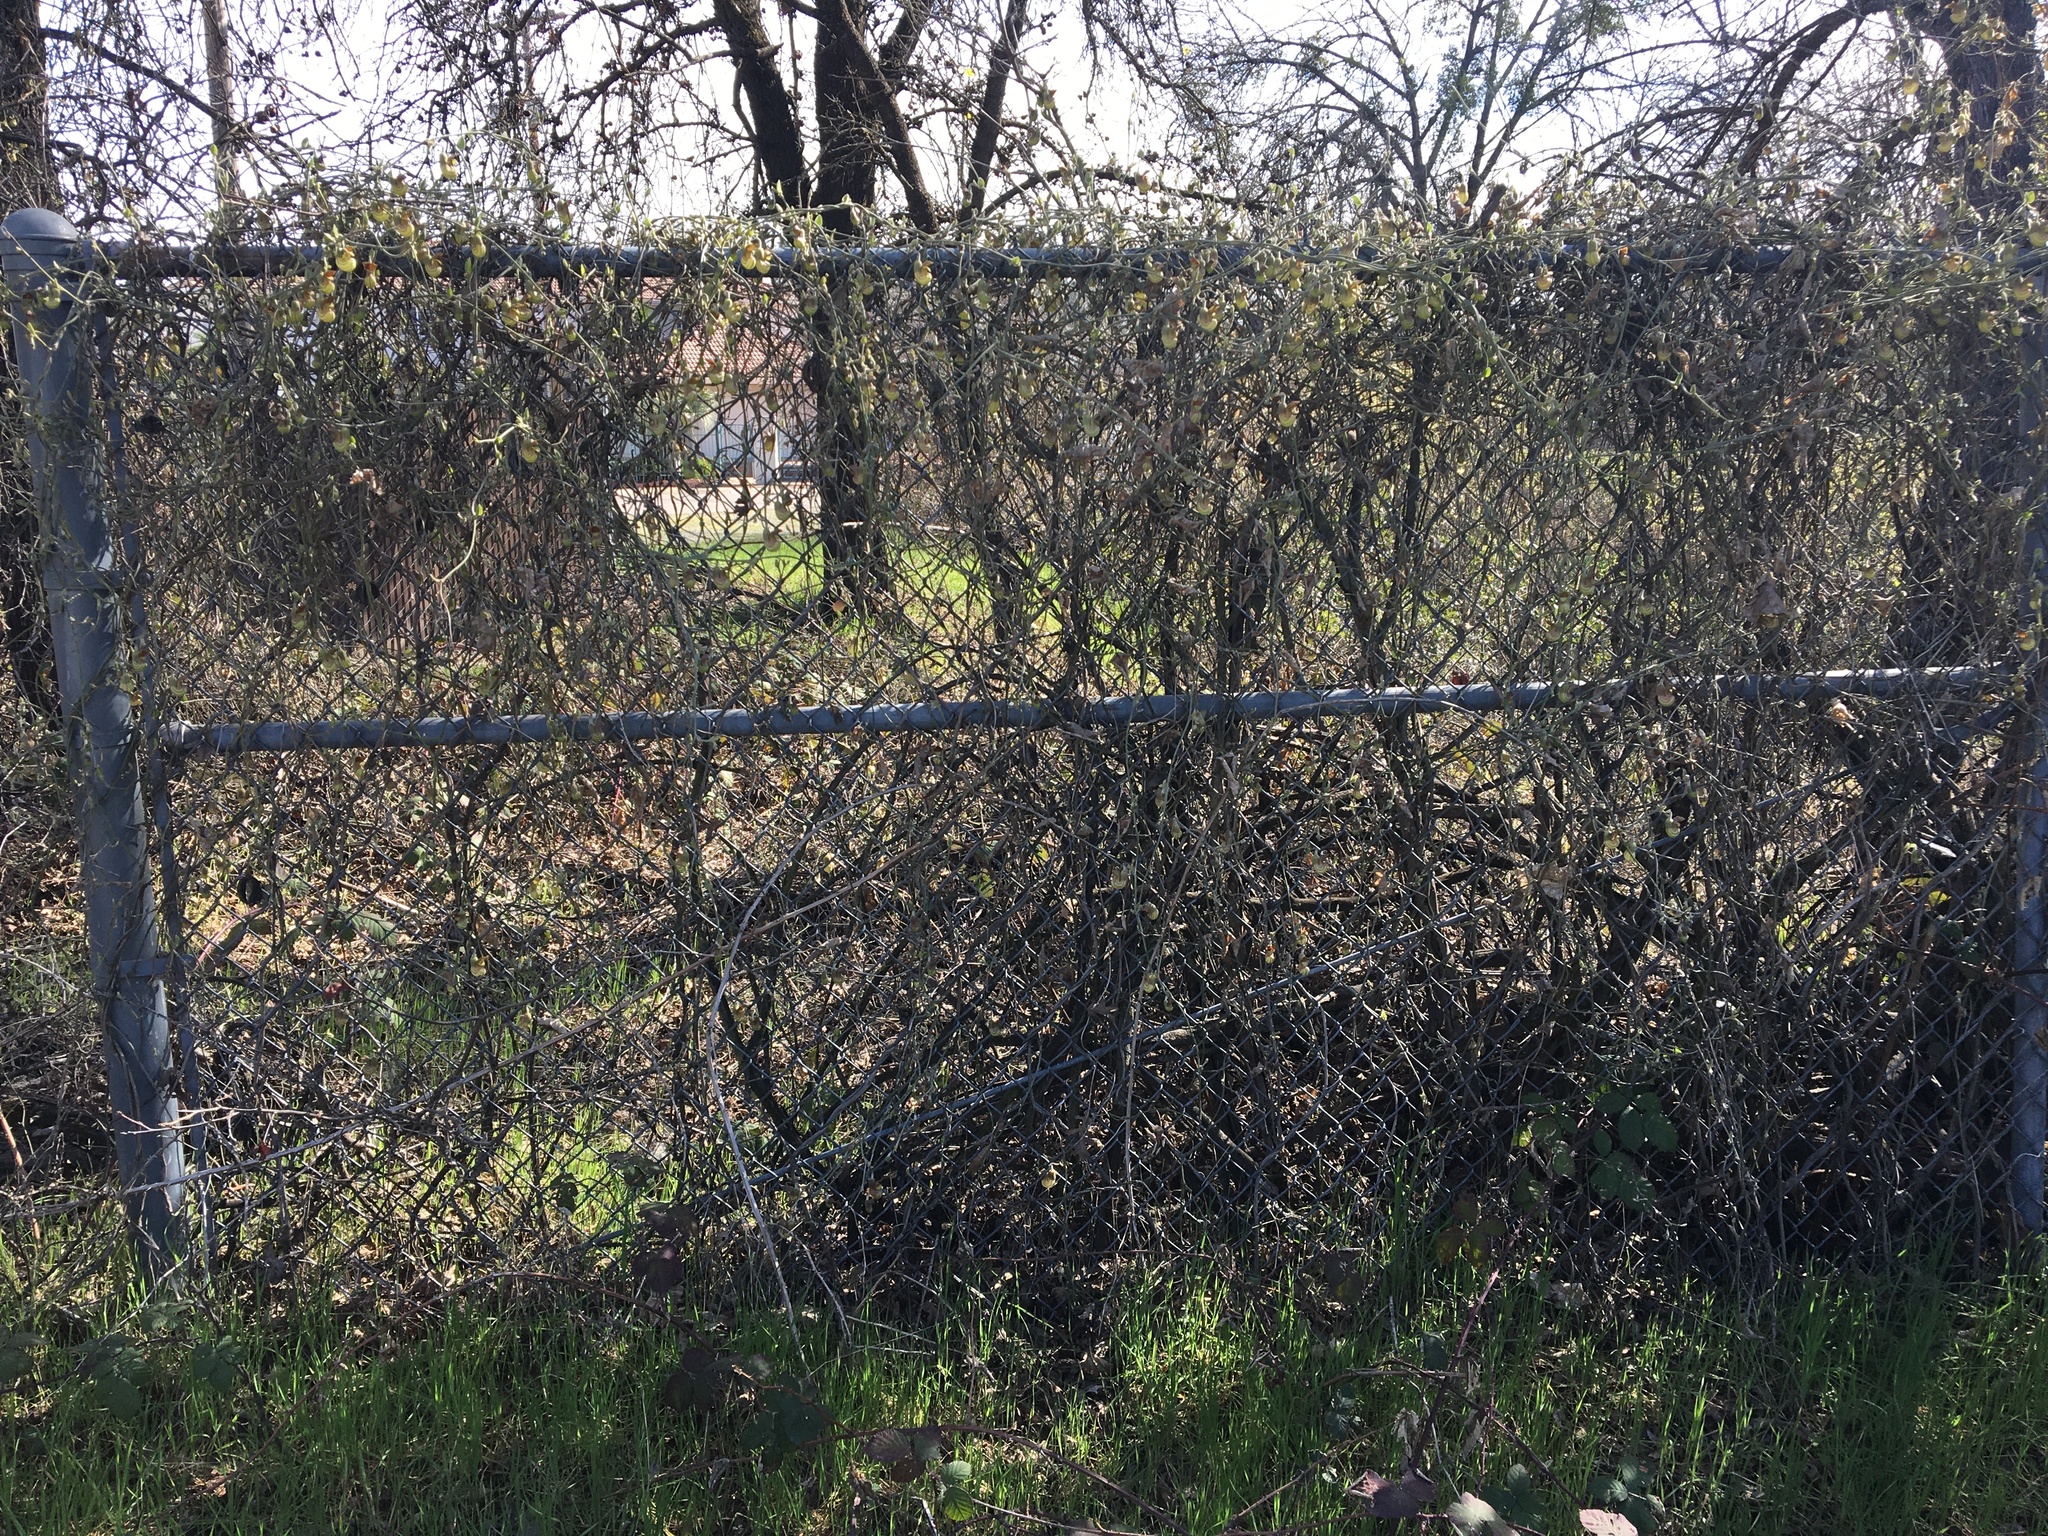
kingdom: Plantae
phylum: Tracheophyta
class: Magnoliopsida
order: Piperales
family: Aristolochiaceae
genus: Isotrema
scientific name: Isotrema californicum
